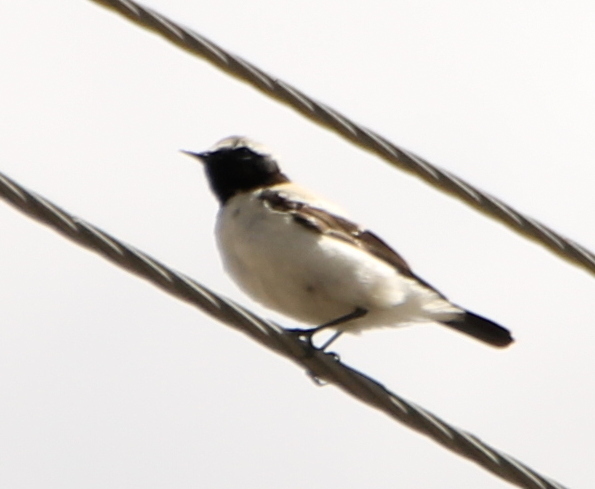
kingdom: Animalia
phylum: Chordata
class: Aves
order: Passeriformes
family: Muscicapidae
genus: Oenanthe
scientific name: Oenanthe deserti
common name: Desert wheatear
